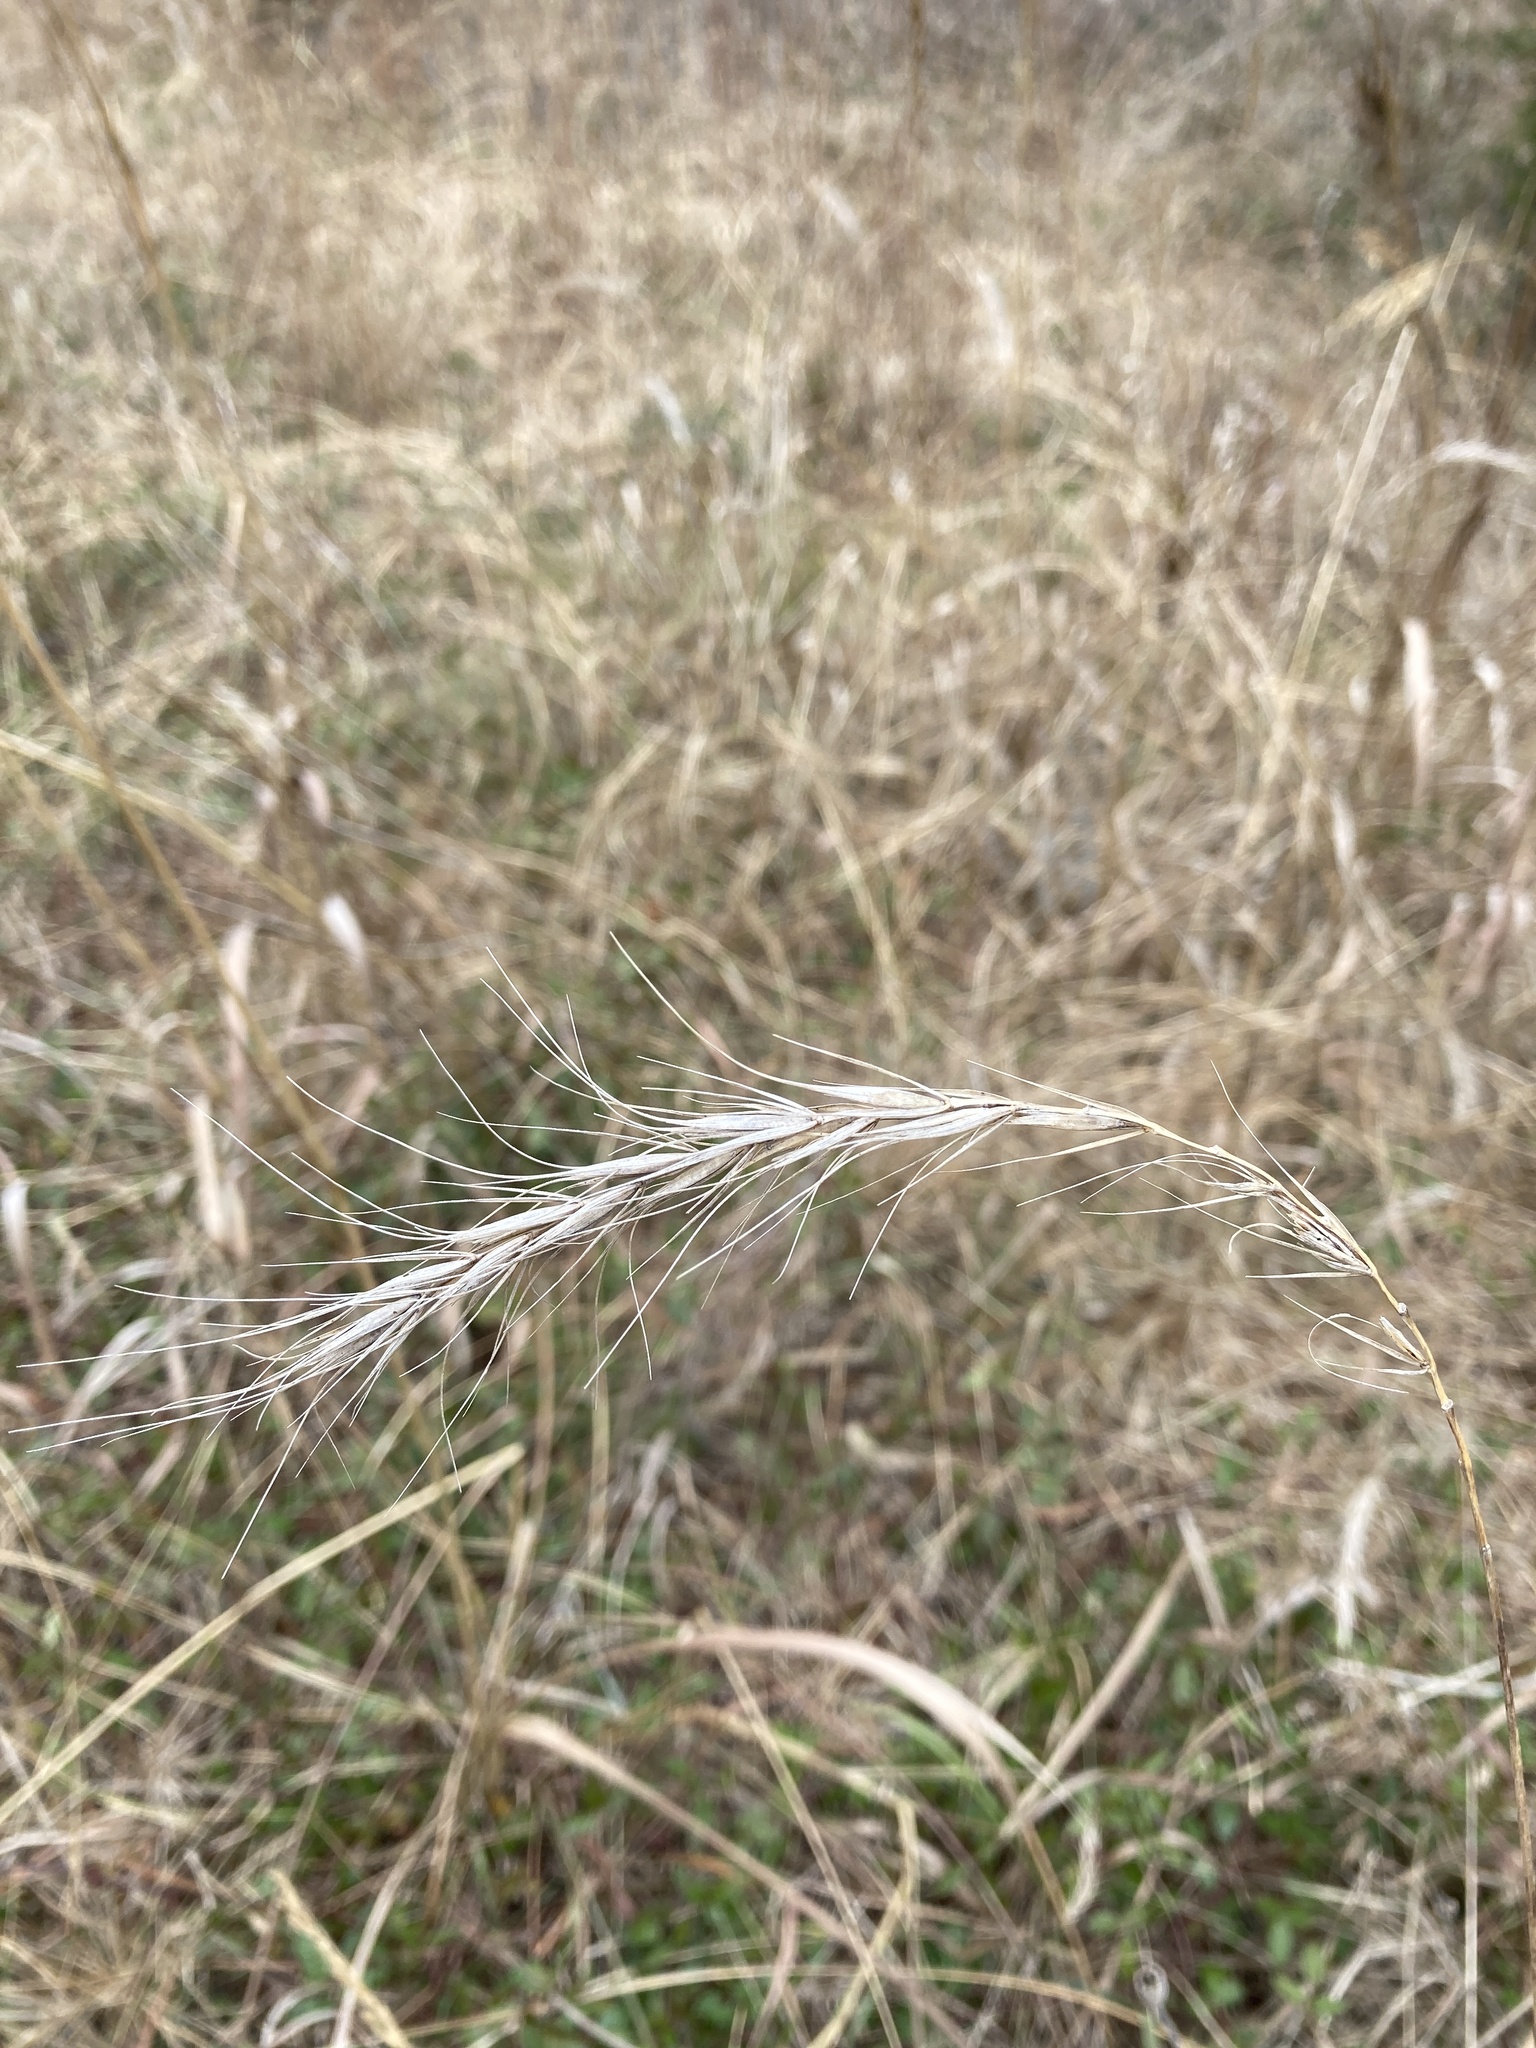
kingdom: Plantae
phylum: Tracheophyta
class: Liliopsida
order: Poales
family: Poaceae
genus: Elymus
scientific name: Elymus canadensis
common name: Canada wild rye
